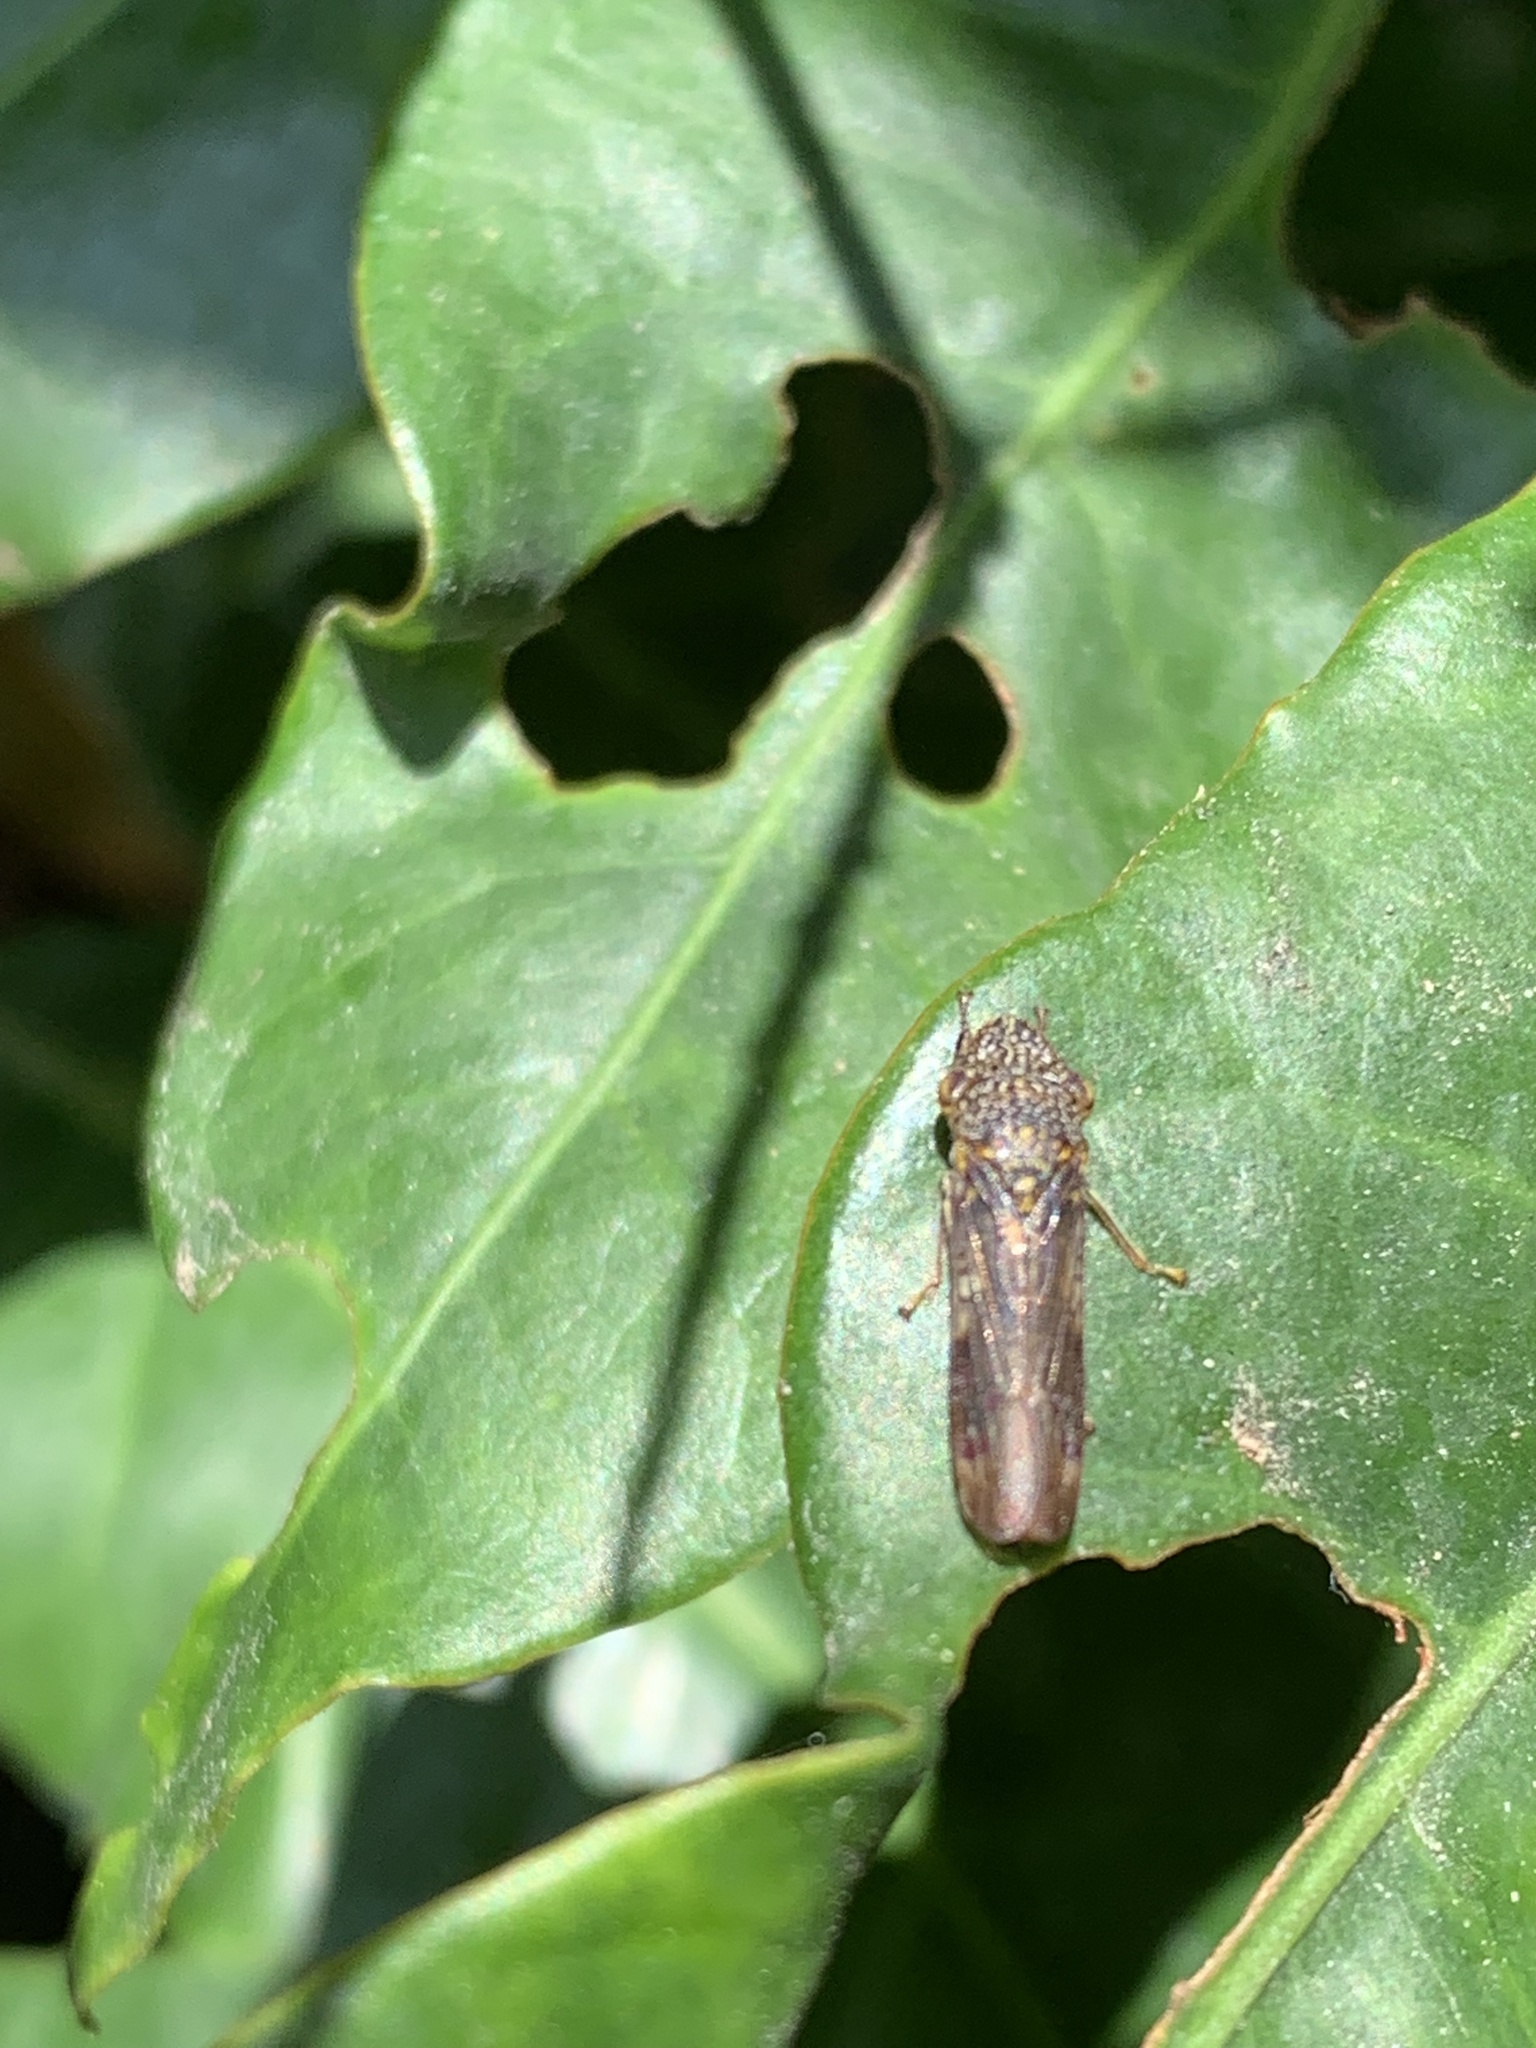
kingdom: Animalia
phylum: Arthropoda
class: Insecta
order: Hemiptera
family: Cicadellidae
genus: Homalodisca
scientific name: Homalodisca vitripennis
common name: Glassy-winged sharpshooter
